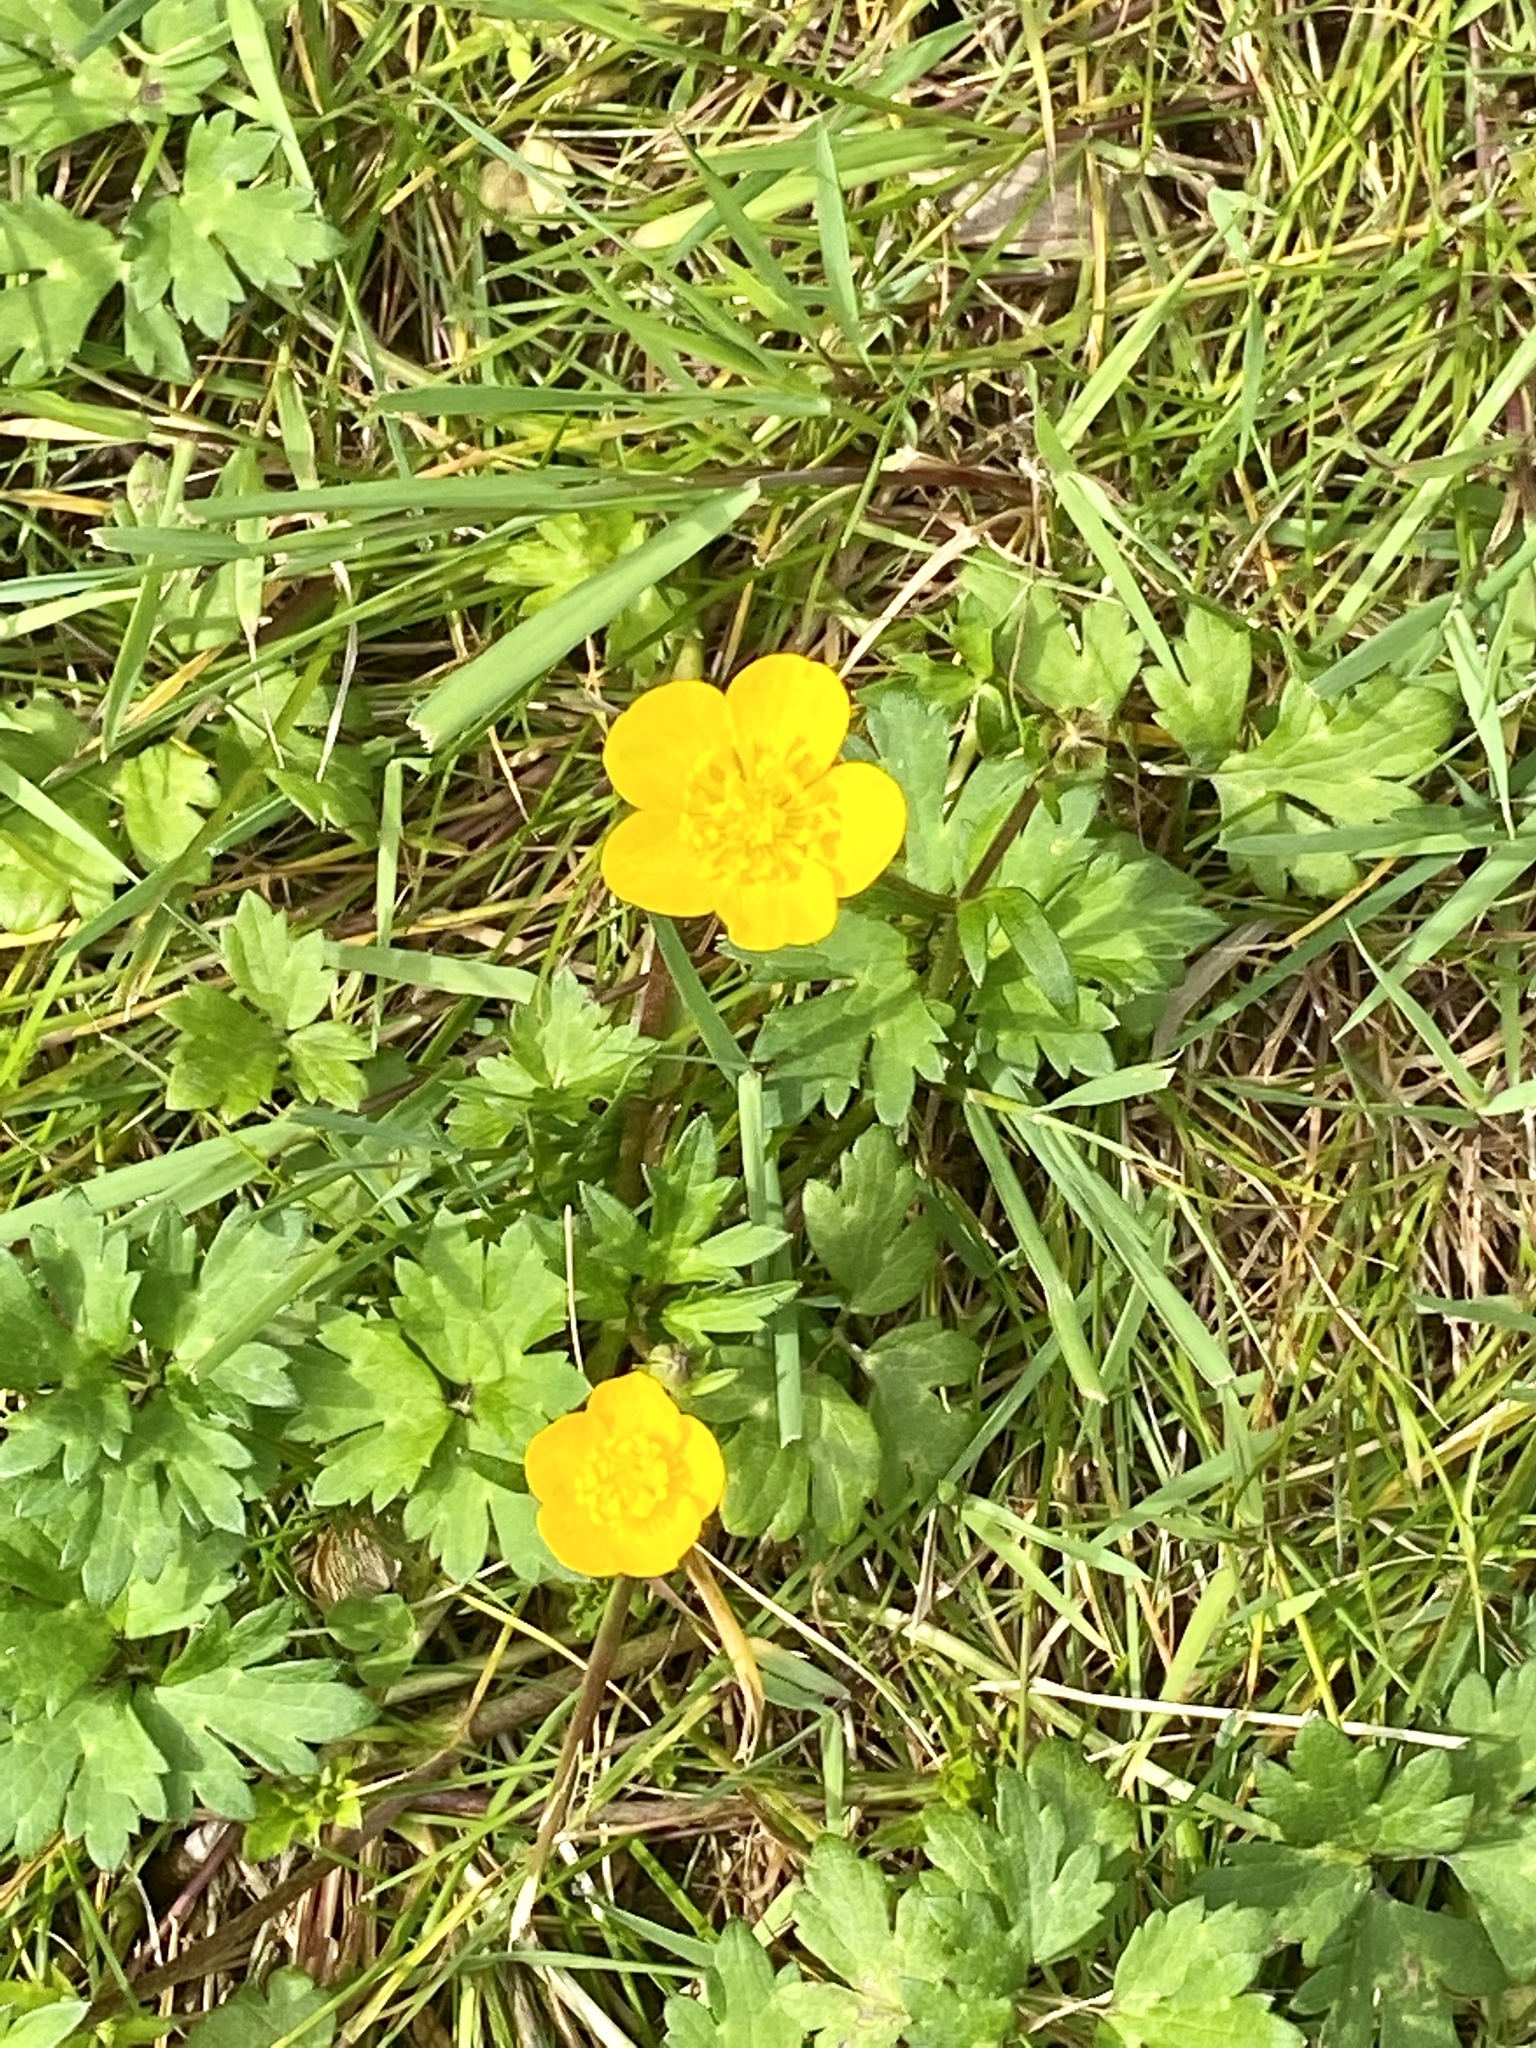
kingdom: Plantae
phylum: Tracheophyta
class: Magnoliopsida
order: Ranunculales
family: Ranunculaceae
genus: Ranunculus
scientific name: Ranunculus repens
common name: Creeping buttercup
